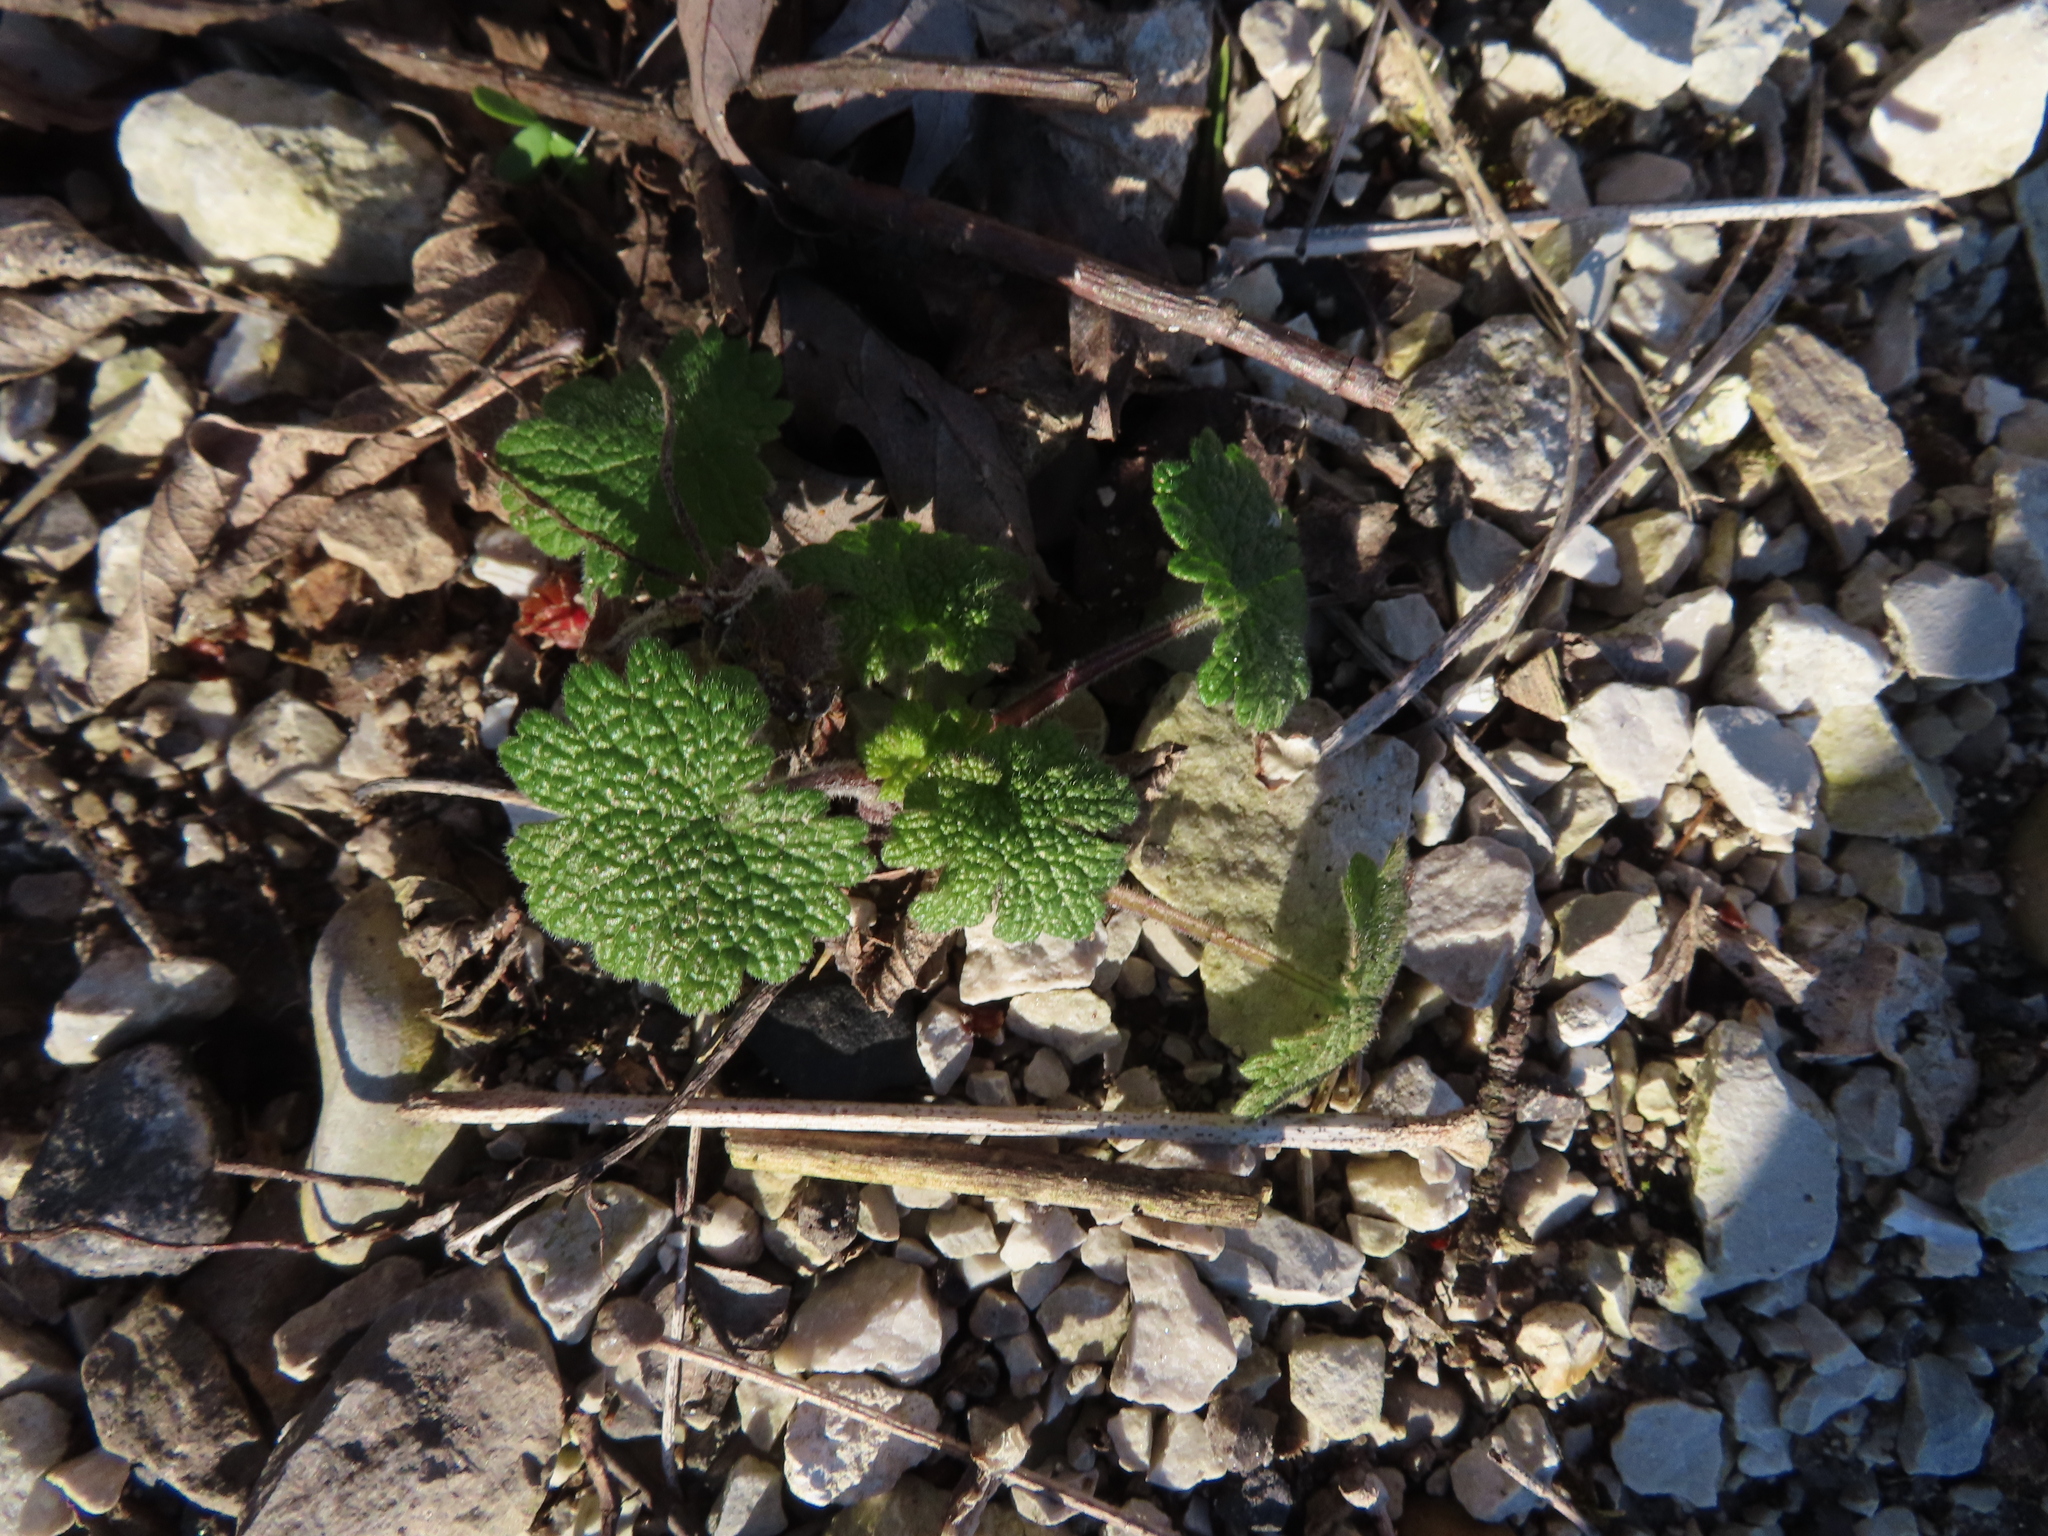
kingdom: Plantae
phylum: Tracheophyta
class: Magnoliopsida
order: Lamiales
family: Lamiaceae
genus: Leonurus
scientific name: Leonurus cardiaca
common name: Motherwort
